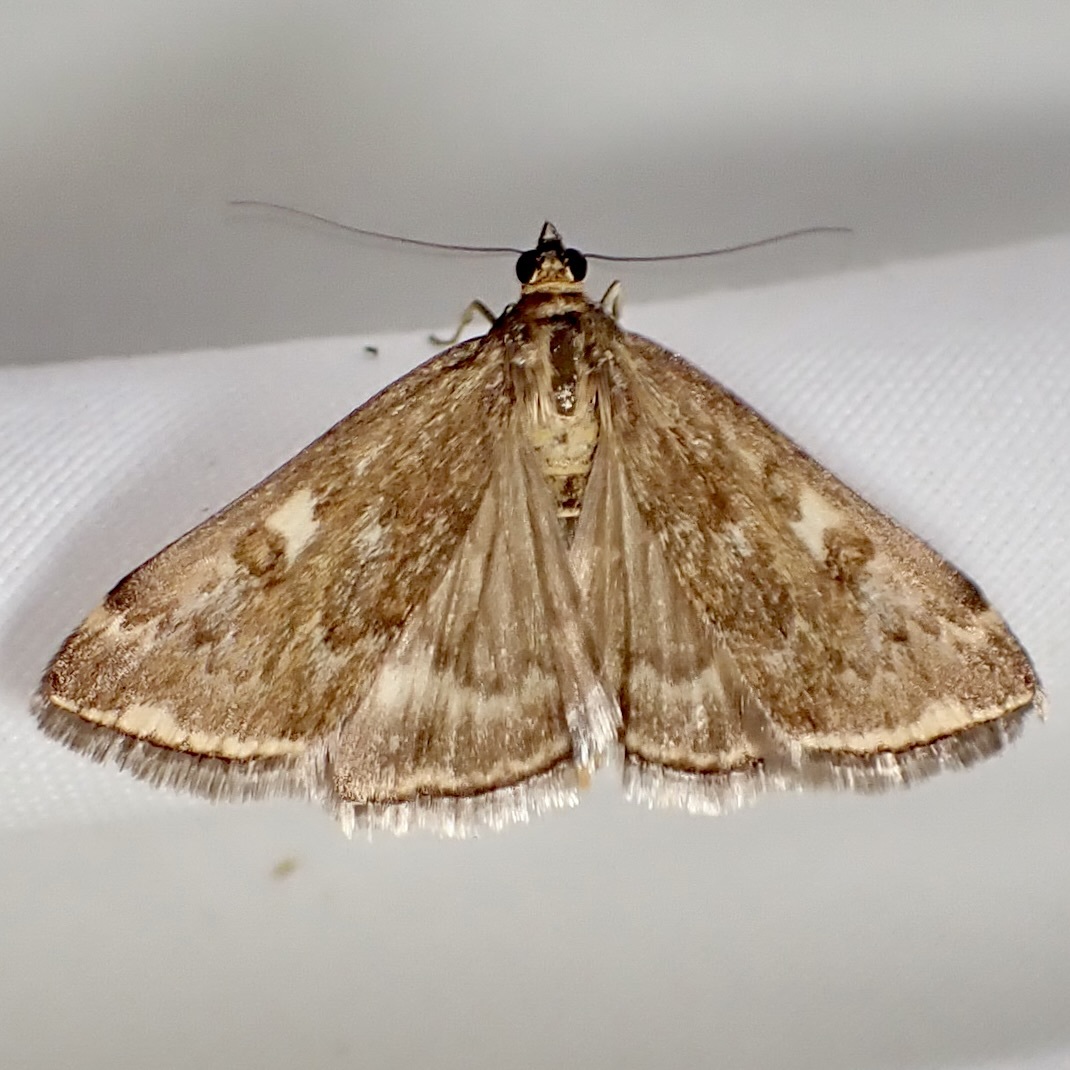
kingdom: Animalia
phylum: Arthropoda
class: Insecta
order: Lepidoptera
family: Crambidae
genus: Loxostege
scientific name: Loxostege
